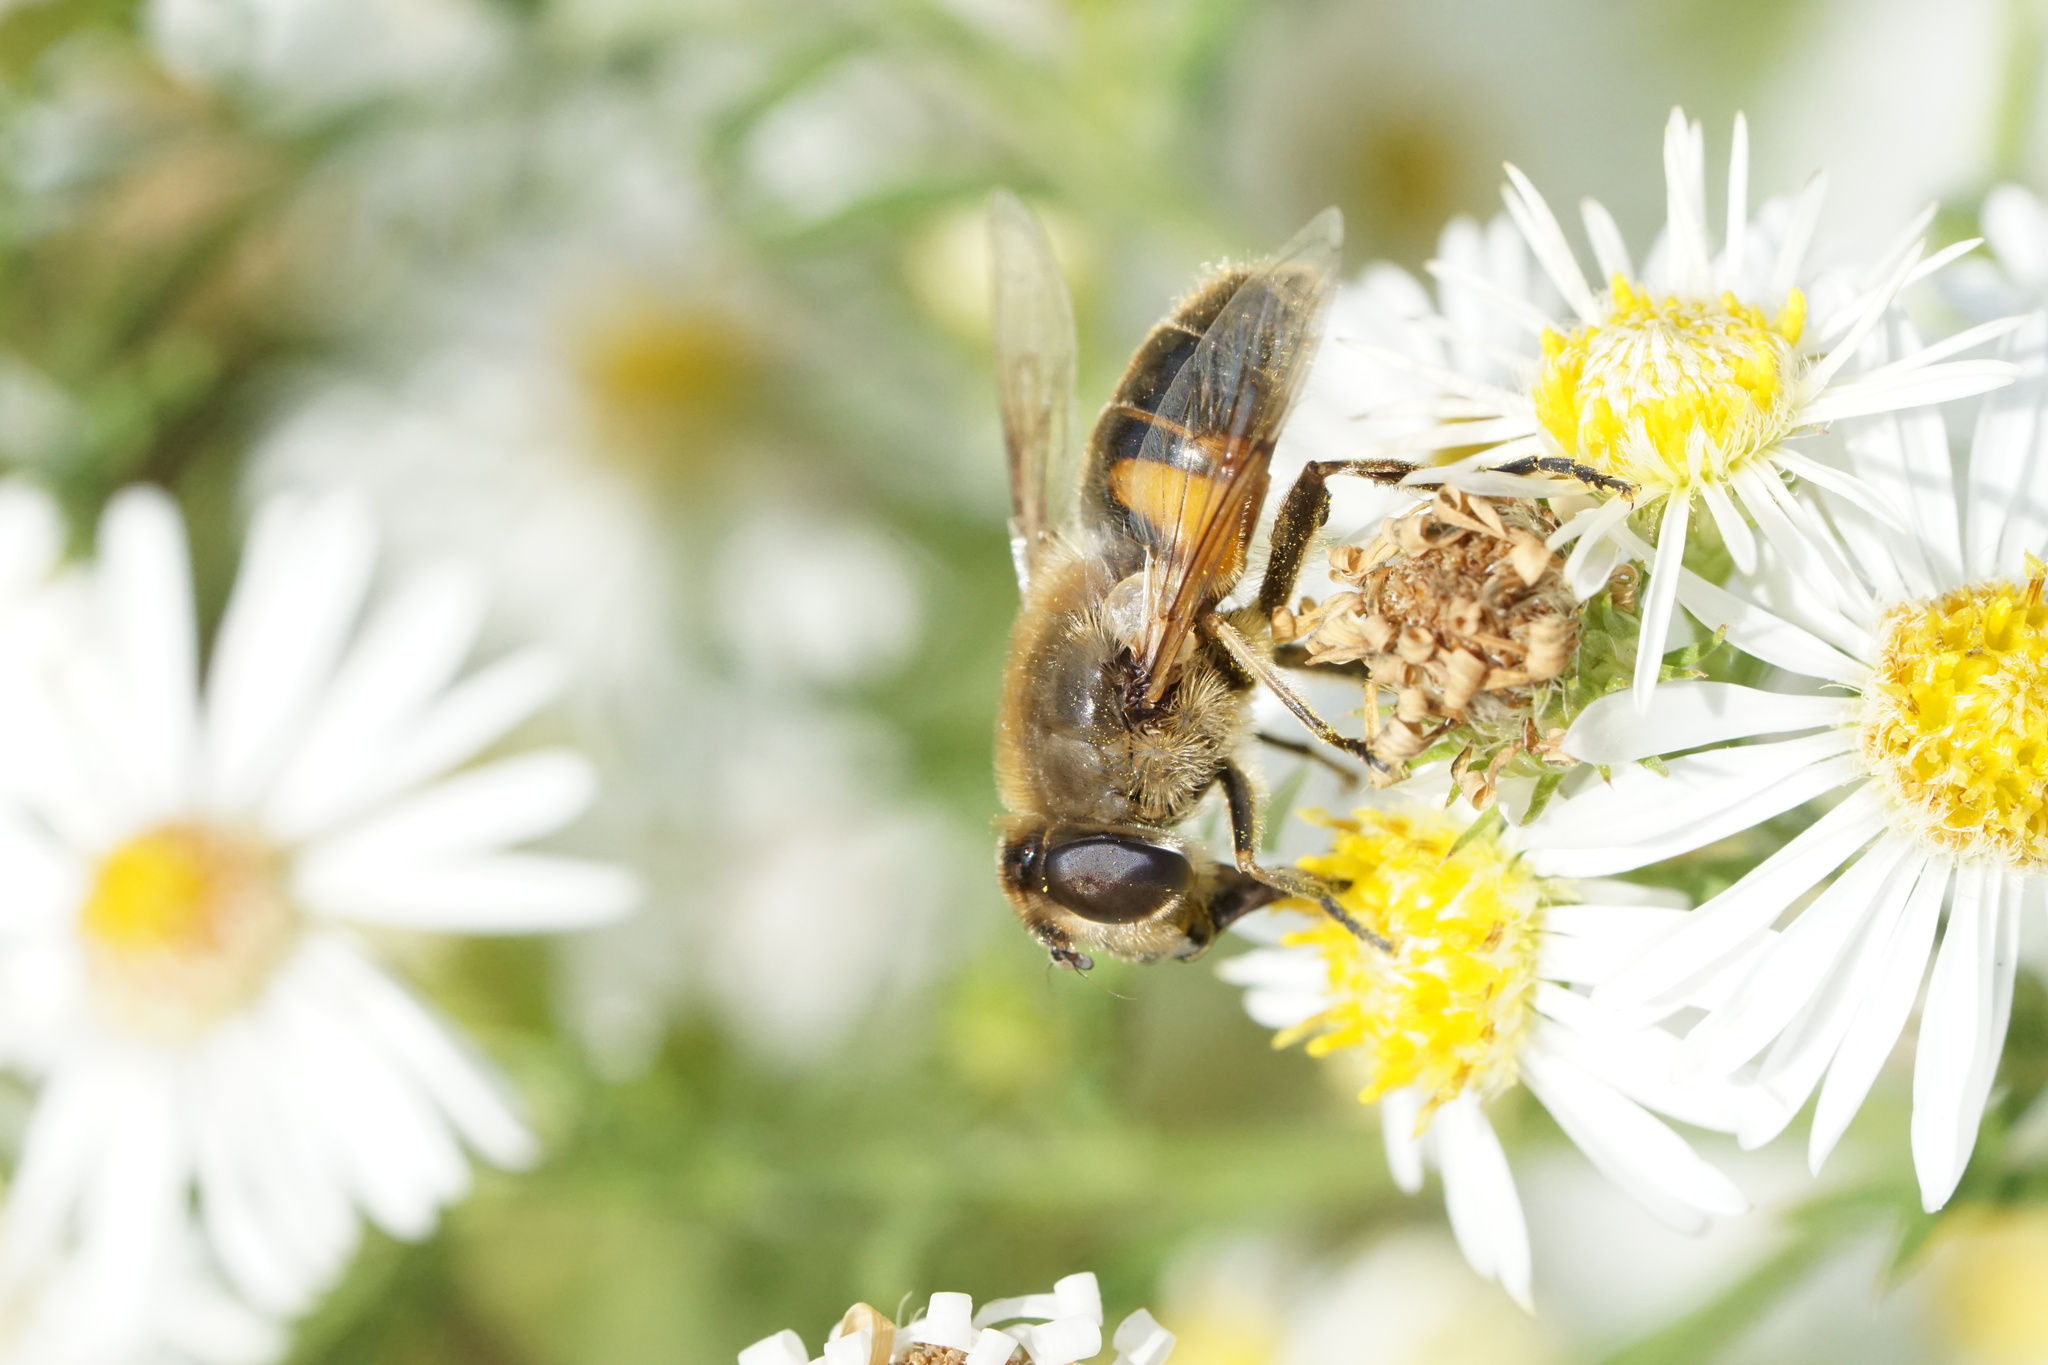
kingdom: Animalia
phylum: Arthropoda
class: Insecta
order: Diptera
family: Syrphidae
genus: Eristalis
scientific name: Eristalis tenax
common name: Drone fly
